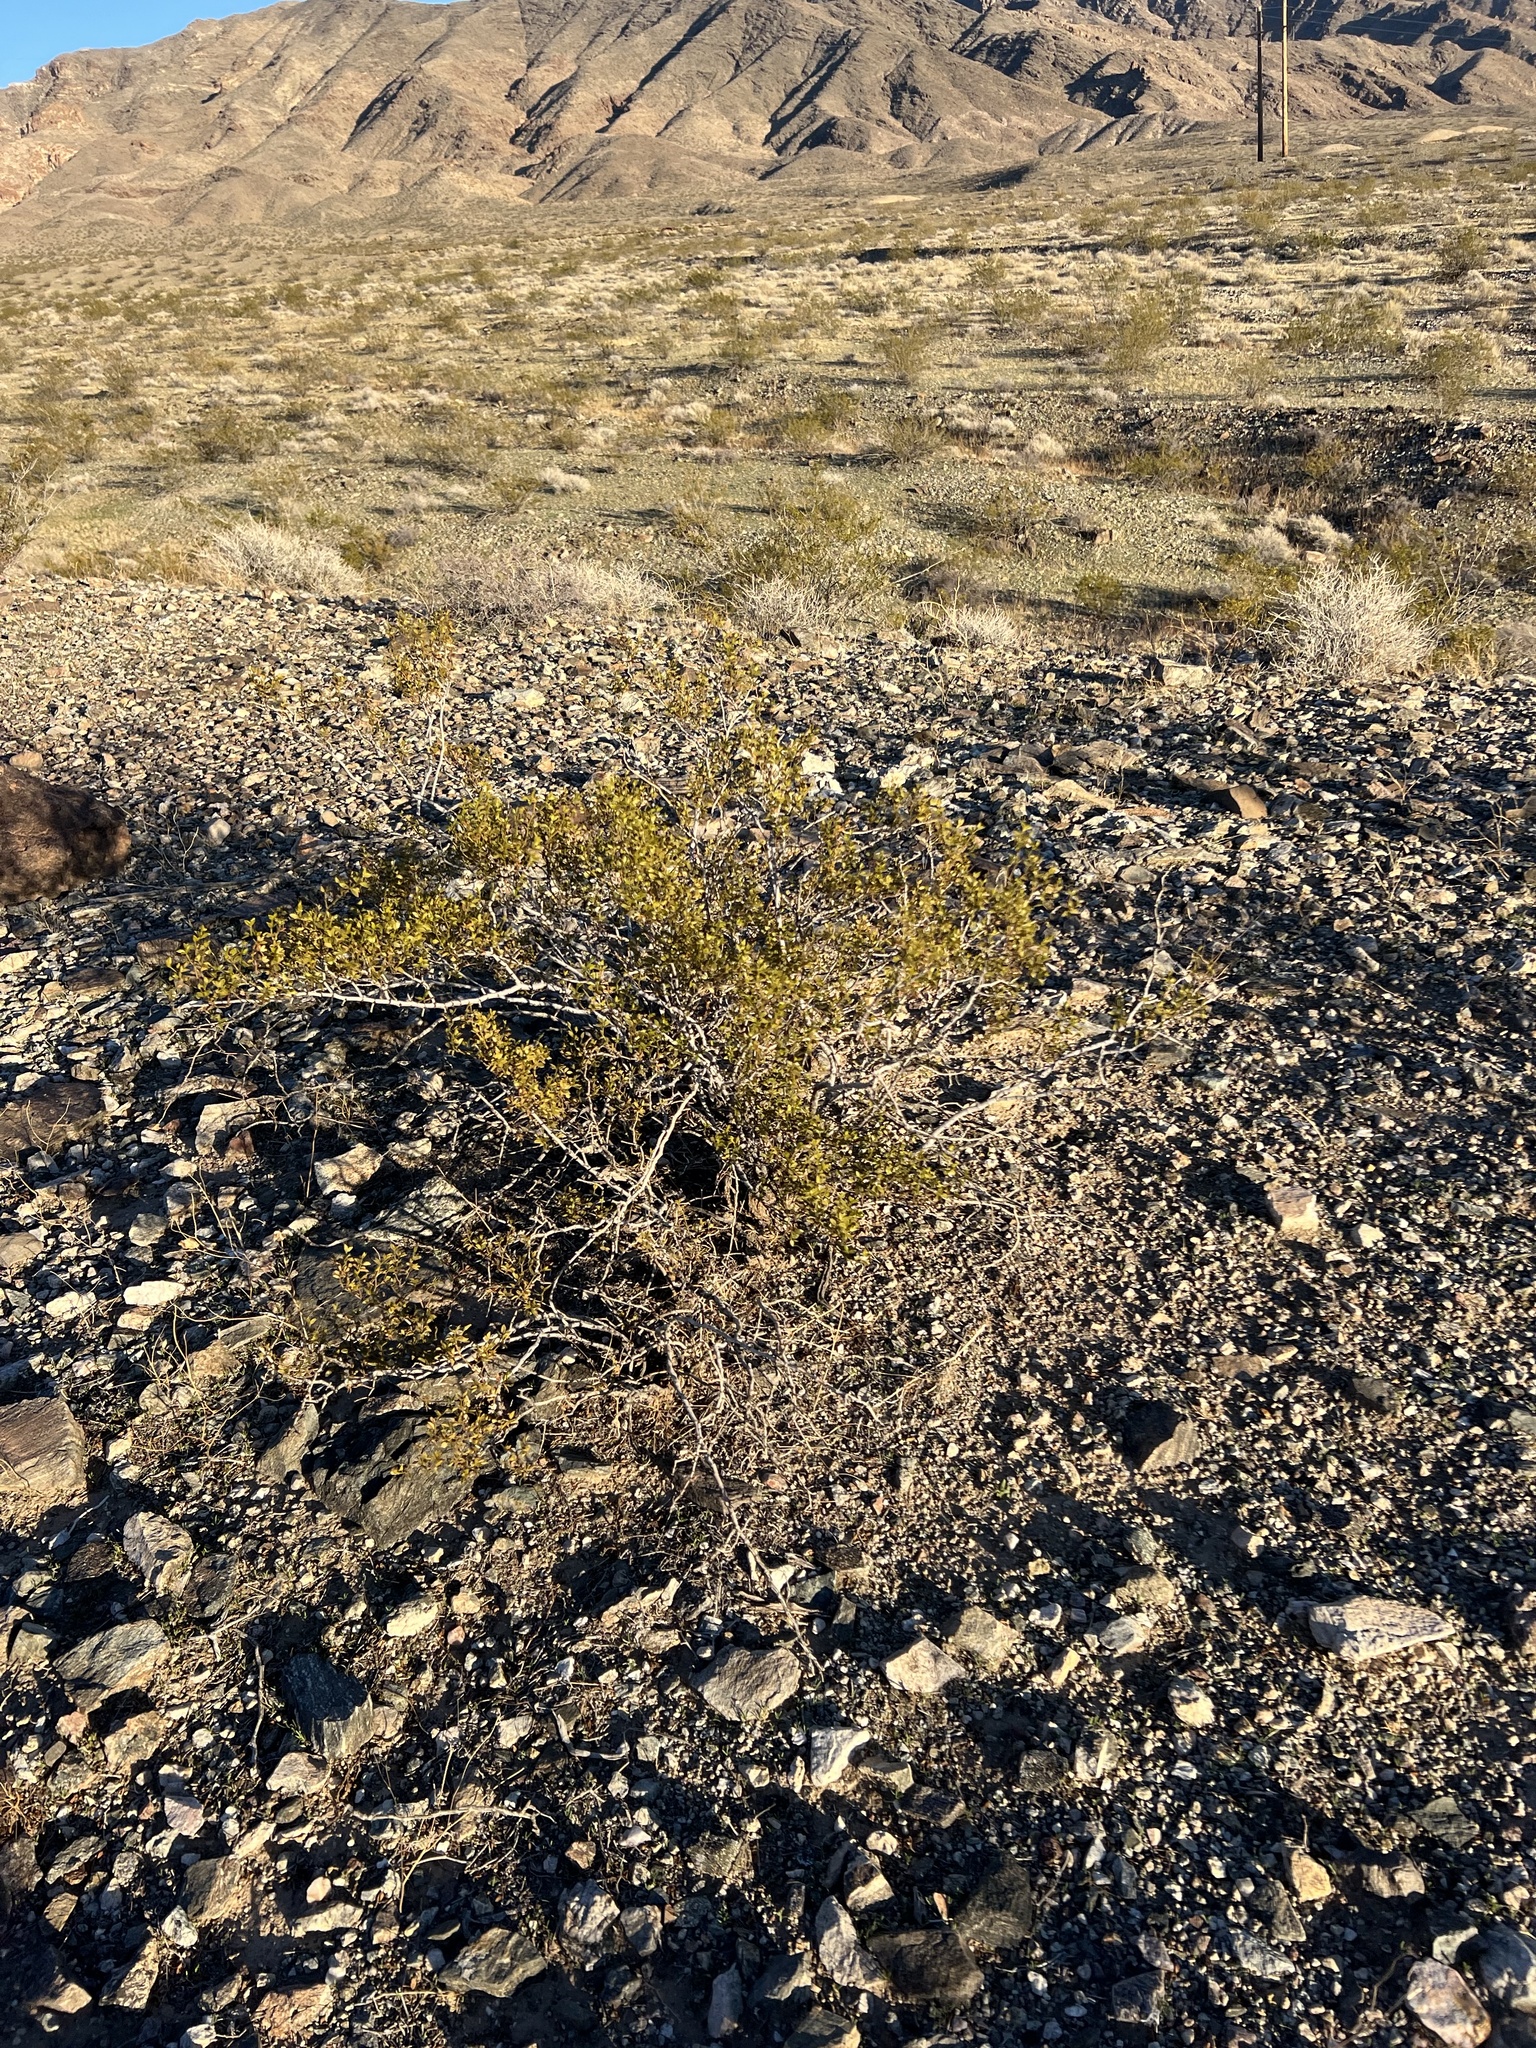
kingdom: Plantae
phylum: Tracheophyta
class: Magnoliopsida
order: Zygophyllales
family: Zygophyllaceae
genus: Larrea
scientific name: Larrea tridentata
